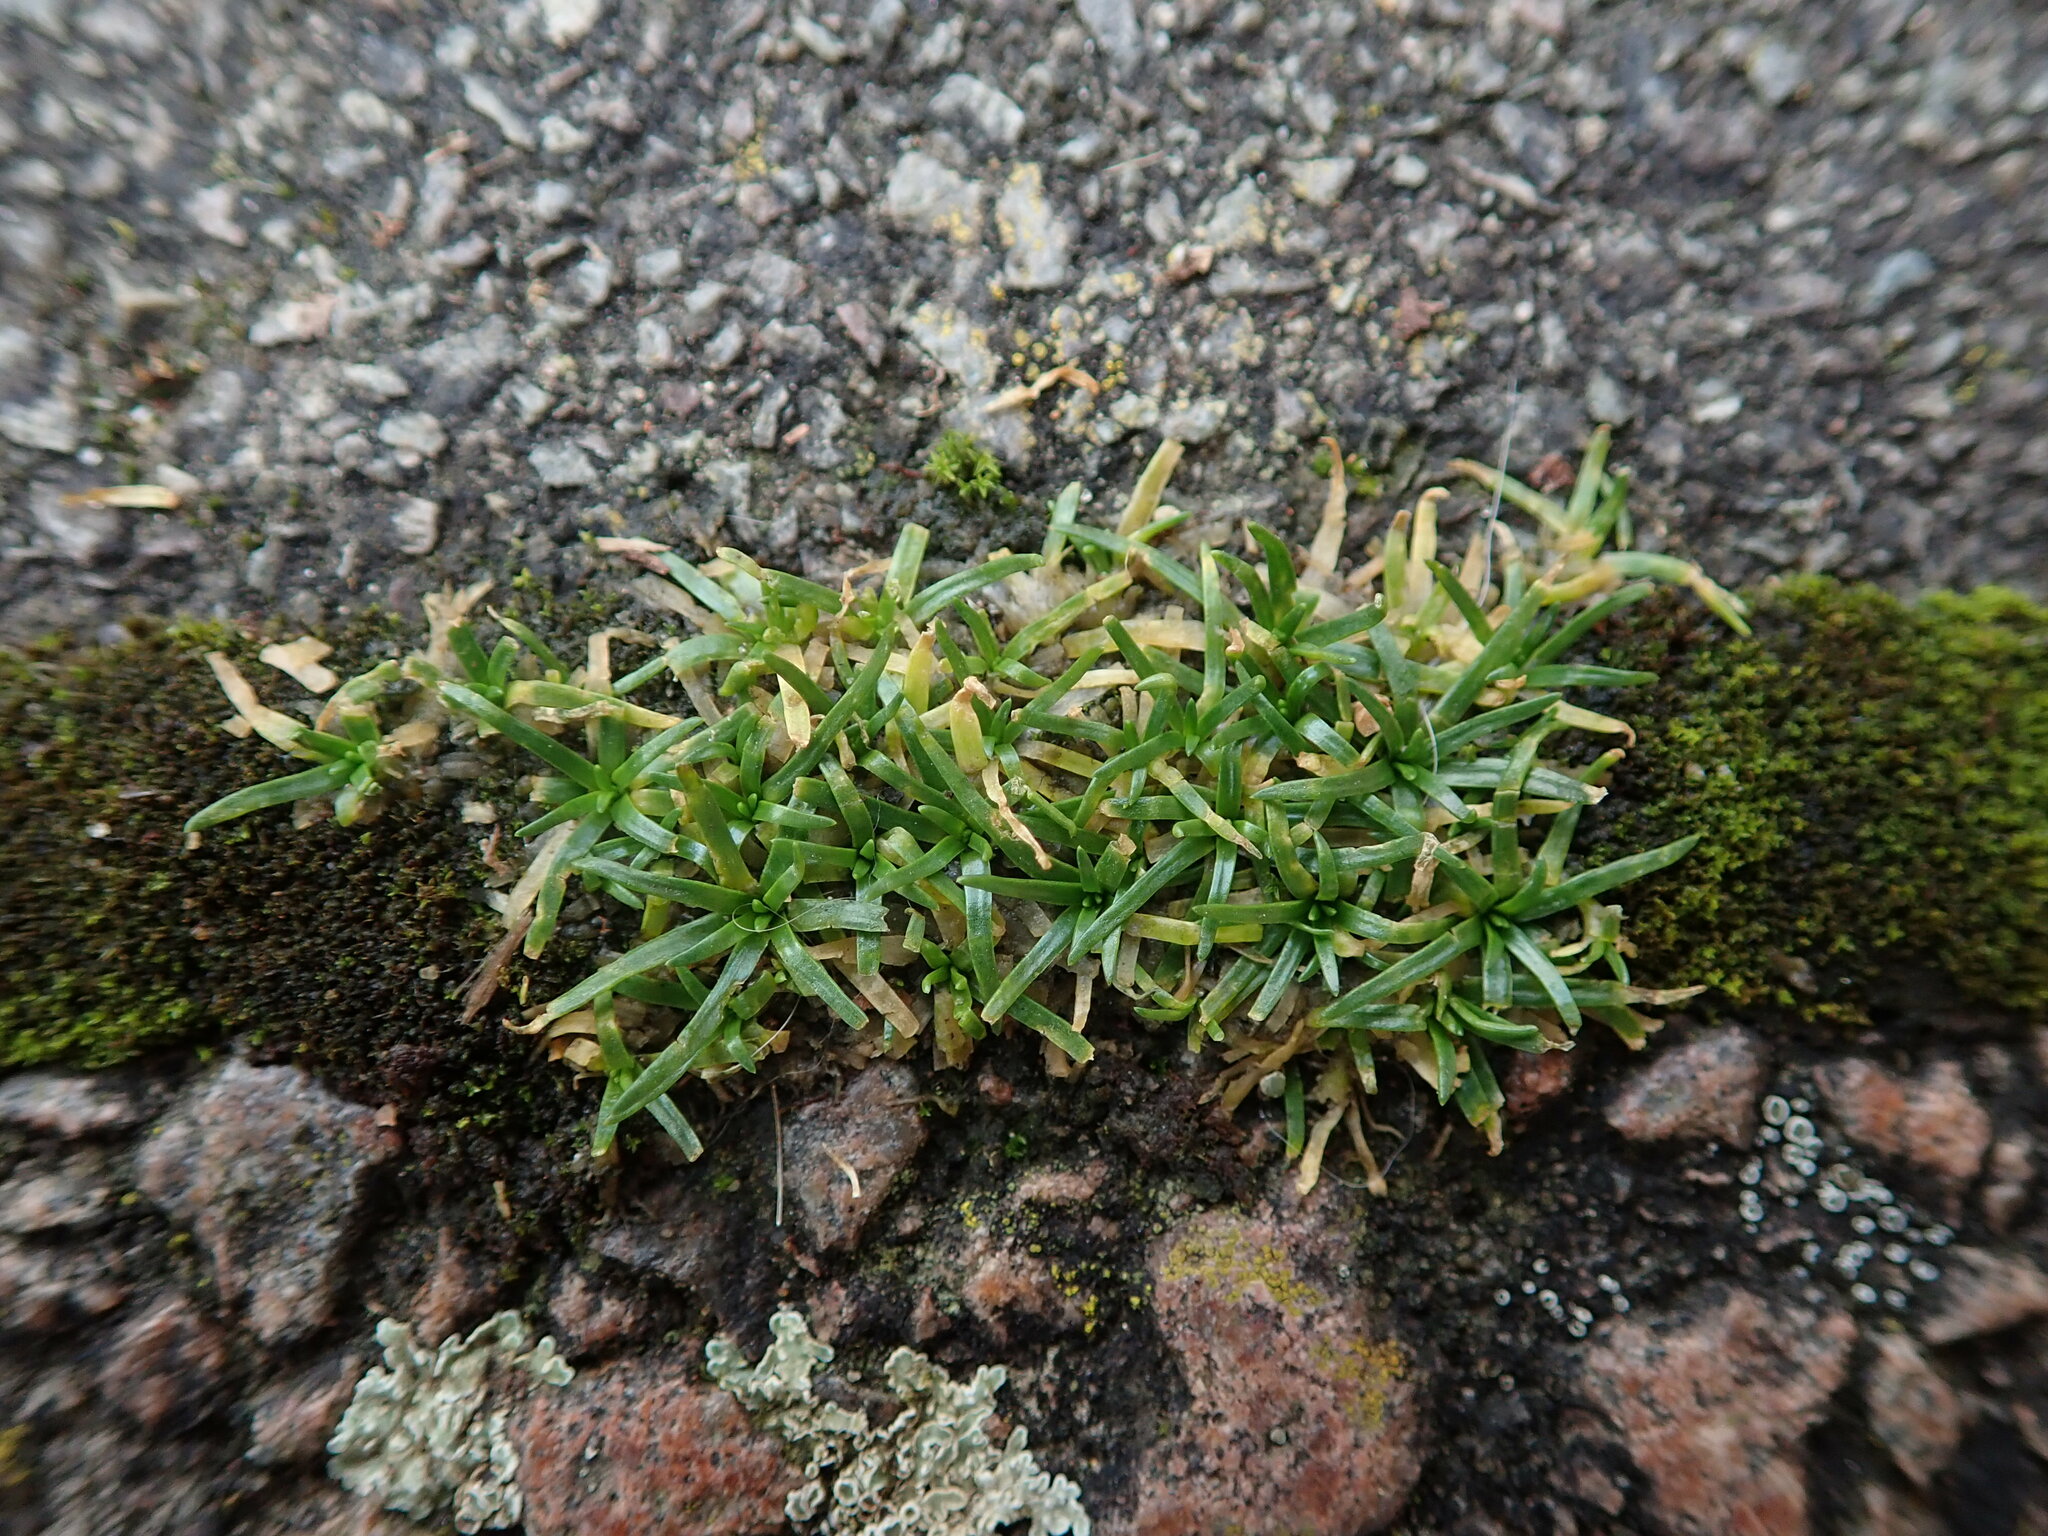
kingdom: Plantae
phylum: Tracheophyta
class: Magnoliopsida
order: Caryophyllales
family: Caryophyllaceae
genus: Sagina
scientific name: Sagina procumbens
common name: Procumbent pearlwort
